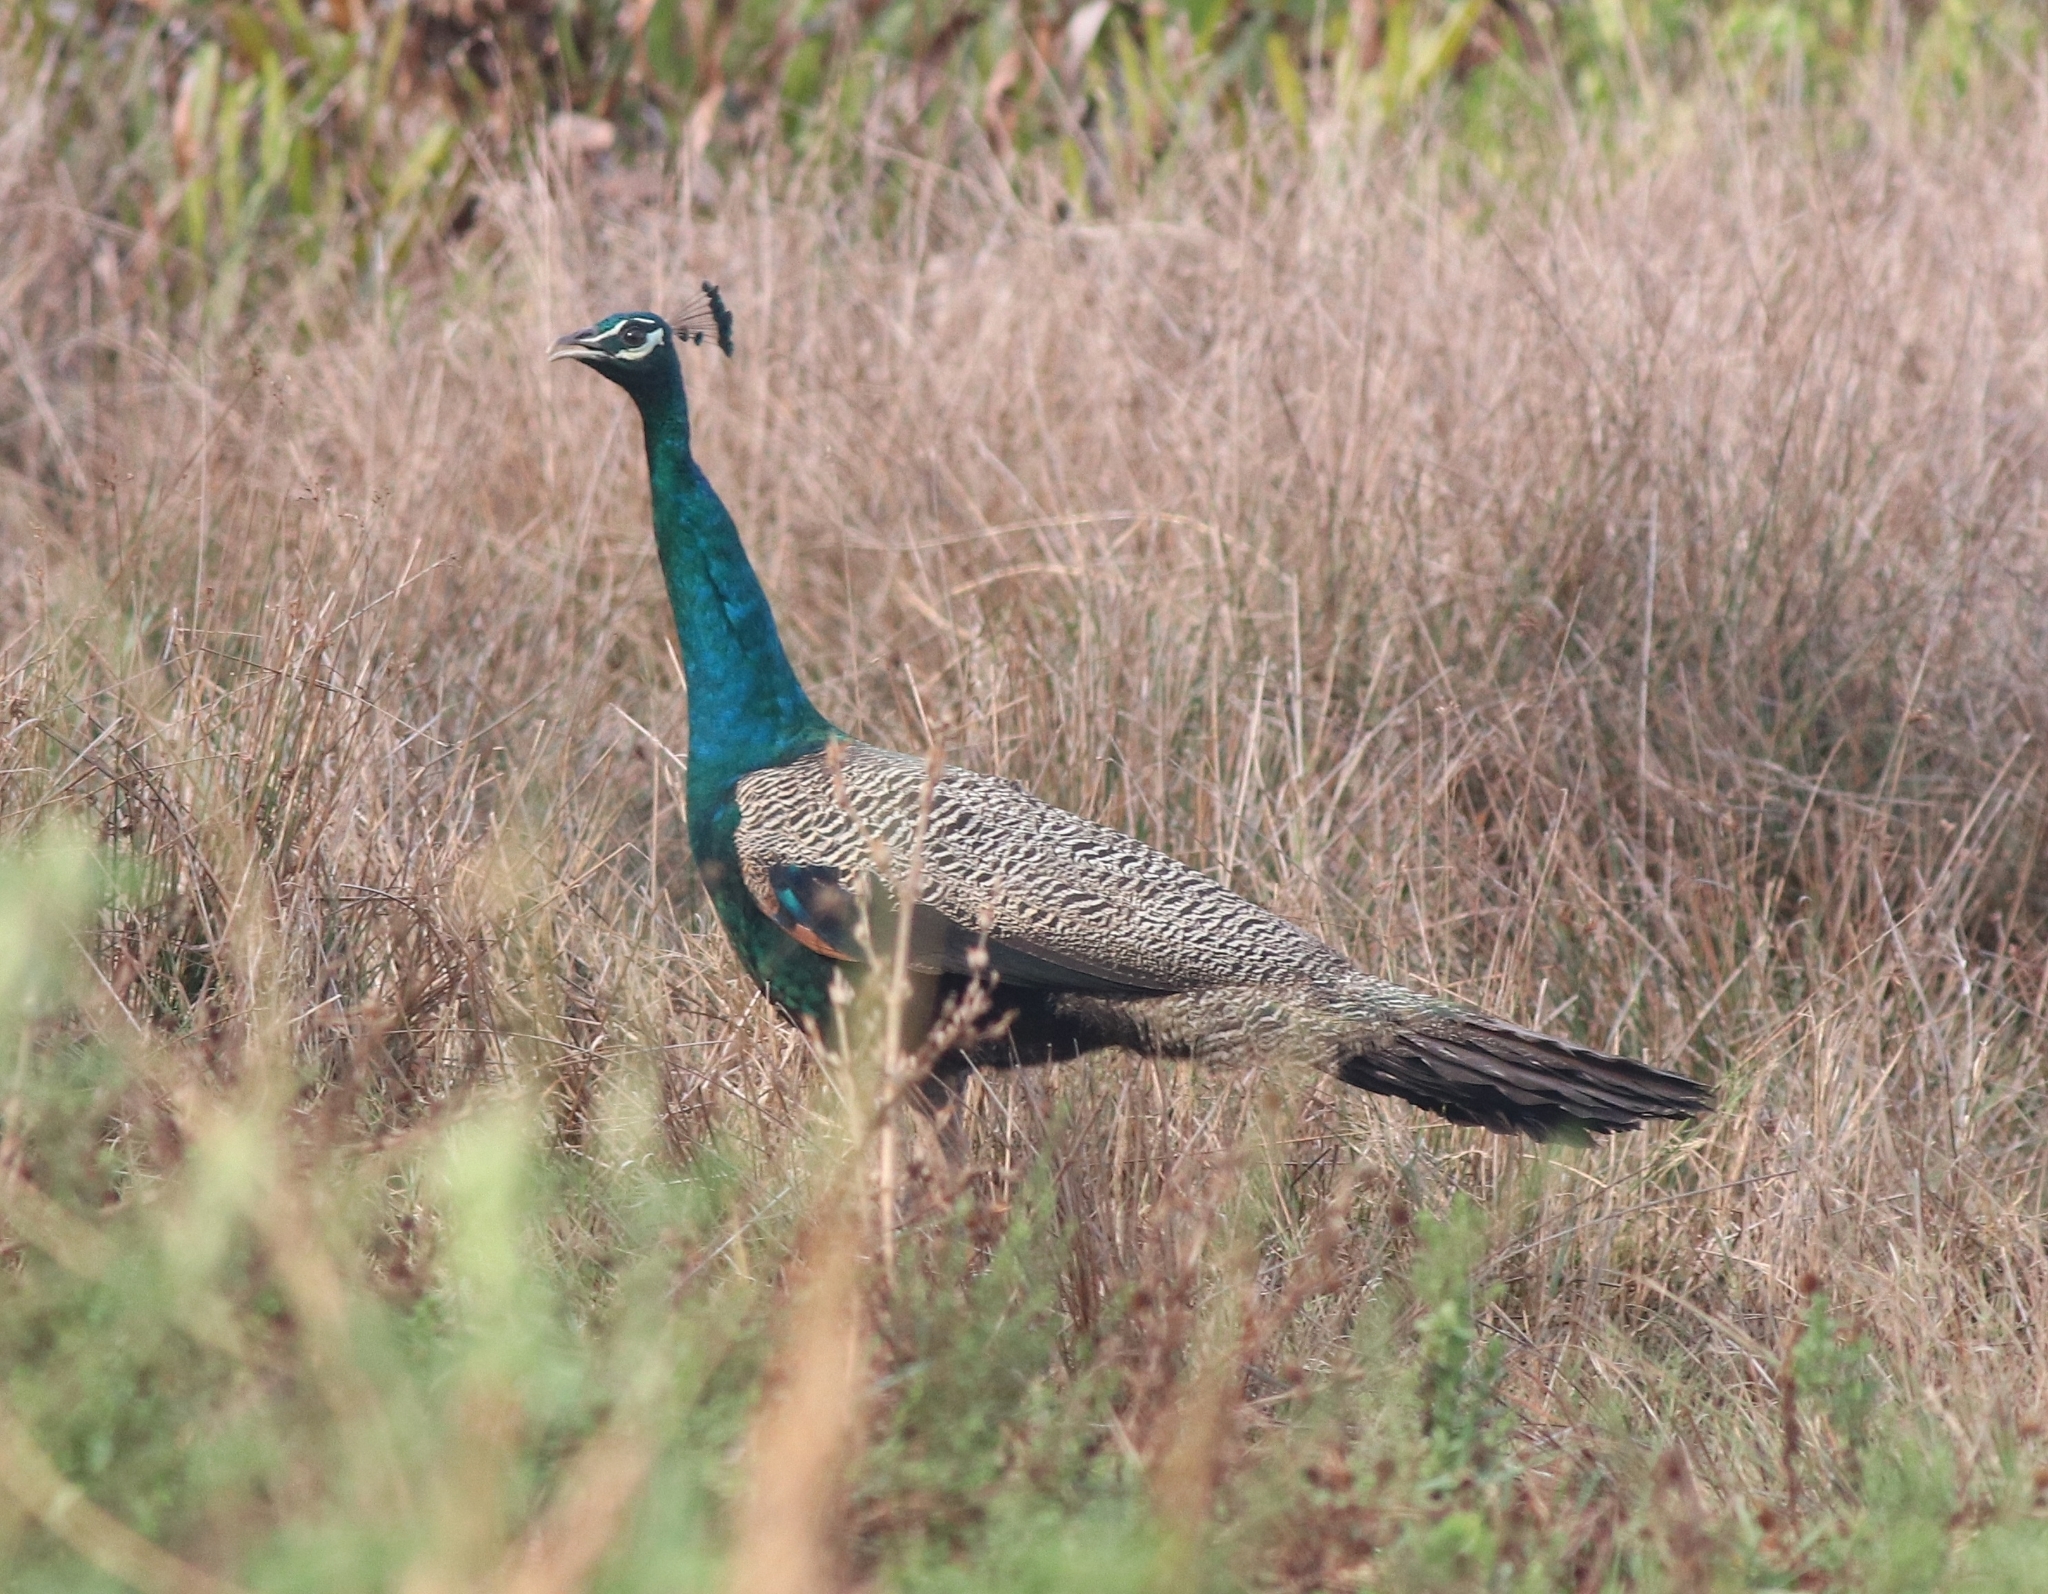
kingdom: Animalia
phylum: Chordata
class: Aves
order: Galliformes
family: Phasianidae
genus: Pavo
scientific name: Pavo cristatus
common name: Indian peafowl
